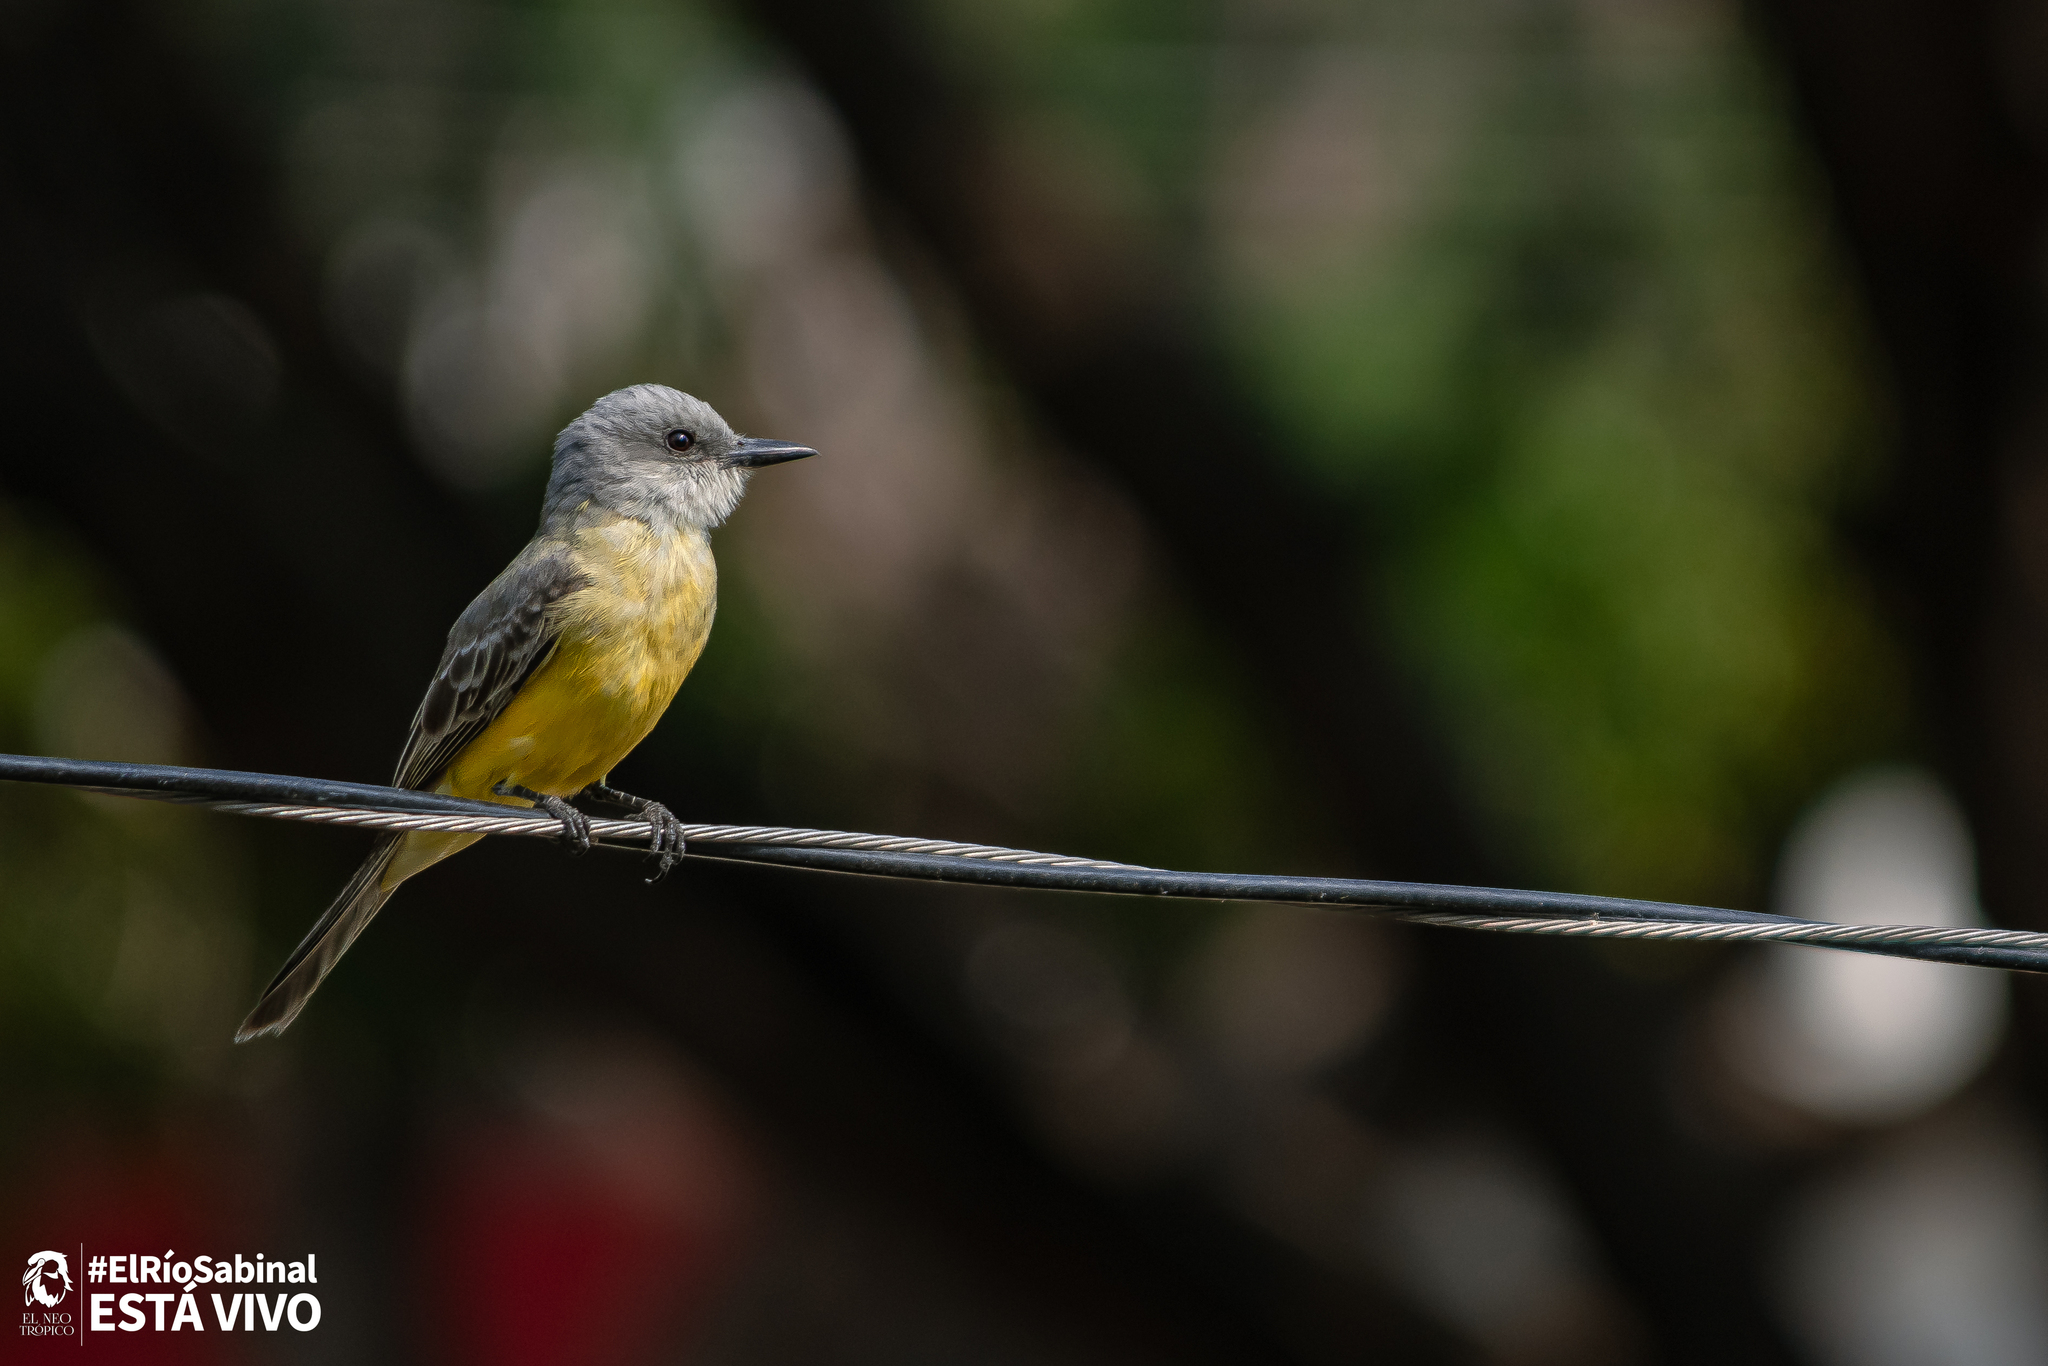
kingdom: Animalia
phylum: Chordata
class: Aves
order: Passeriformes
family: Tyrannidae
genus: Tyrannus
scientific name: Tyrannus melancholicus
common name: Tropical kingbird
